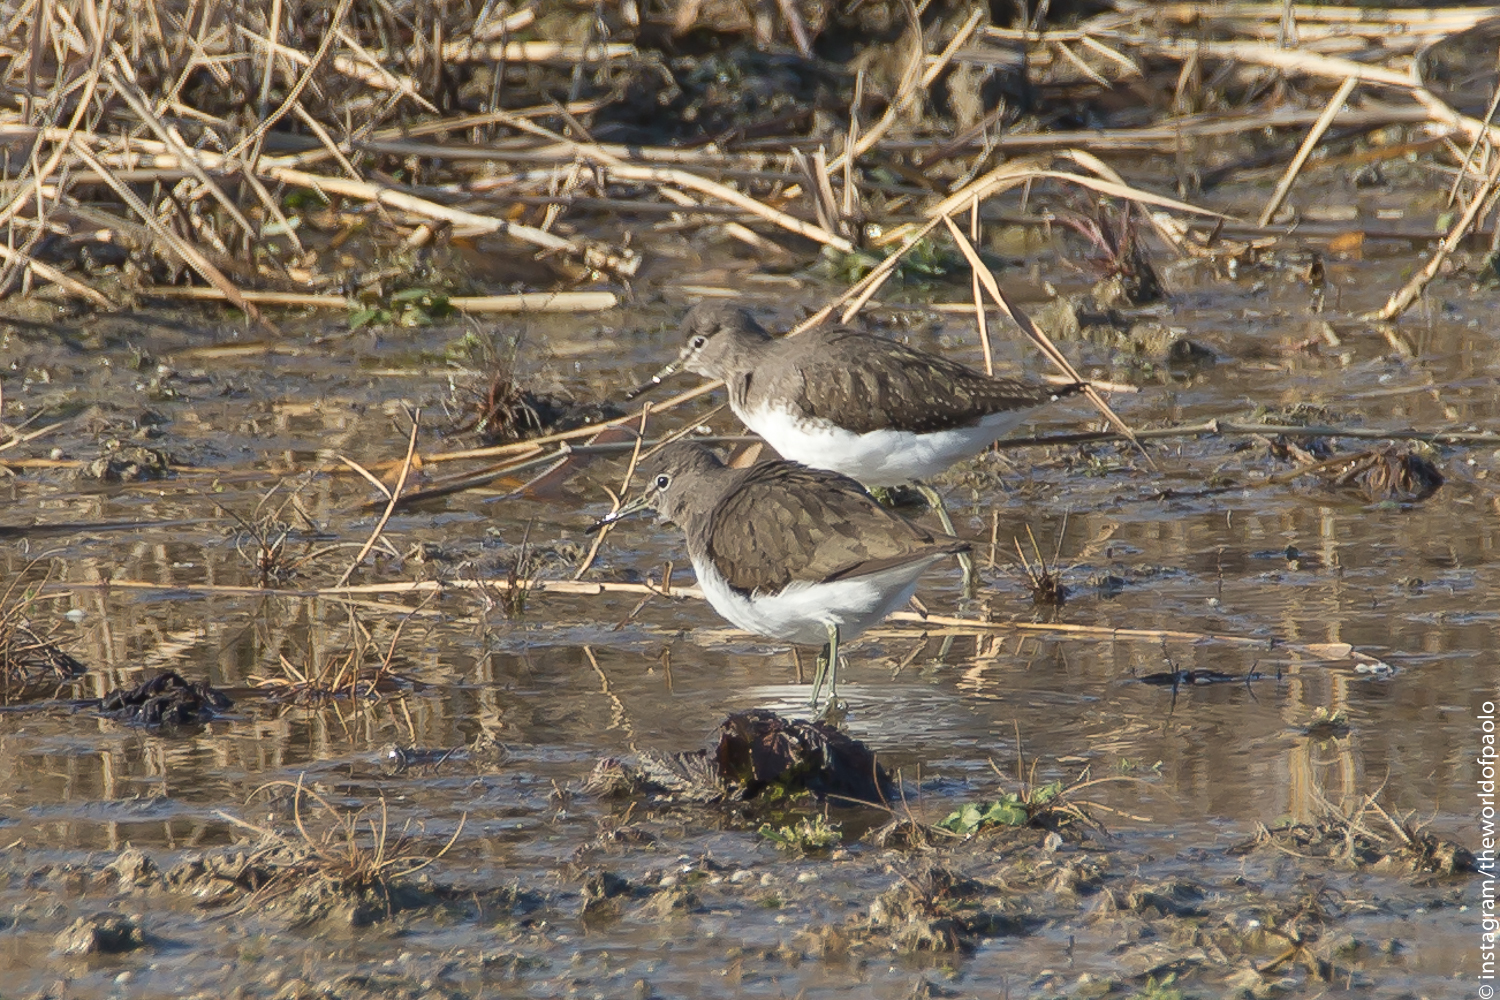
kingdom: Animalia
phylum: Chordata
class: Aves
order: Charadriiformes
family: Scolopacidae
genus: Tringa
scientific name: Tringa ochropus
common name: Green sandpiper
